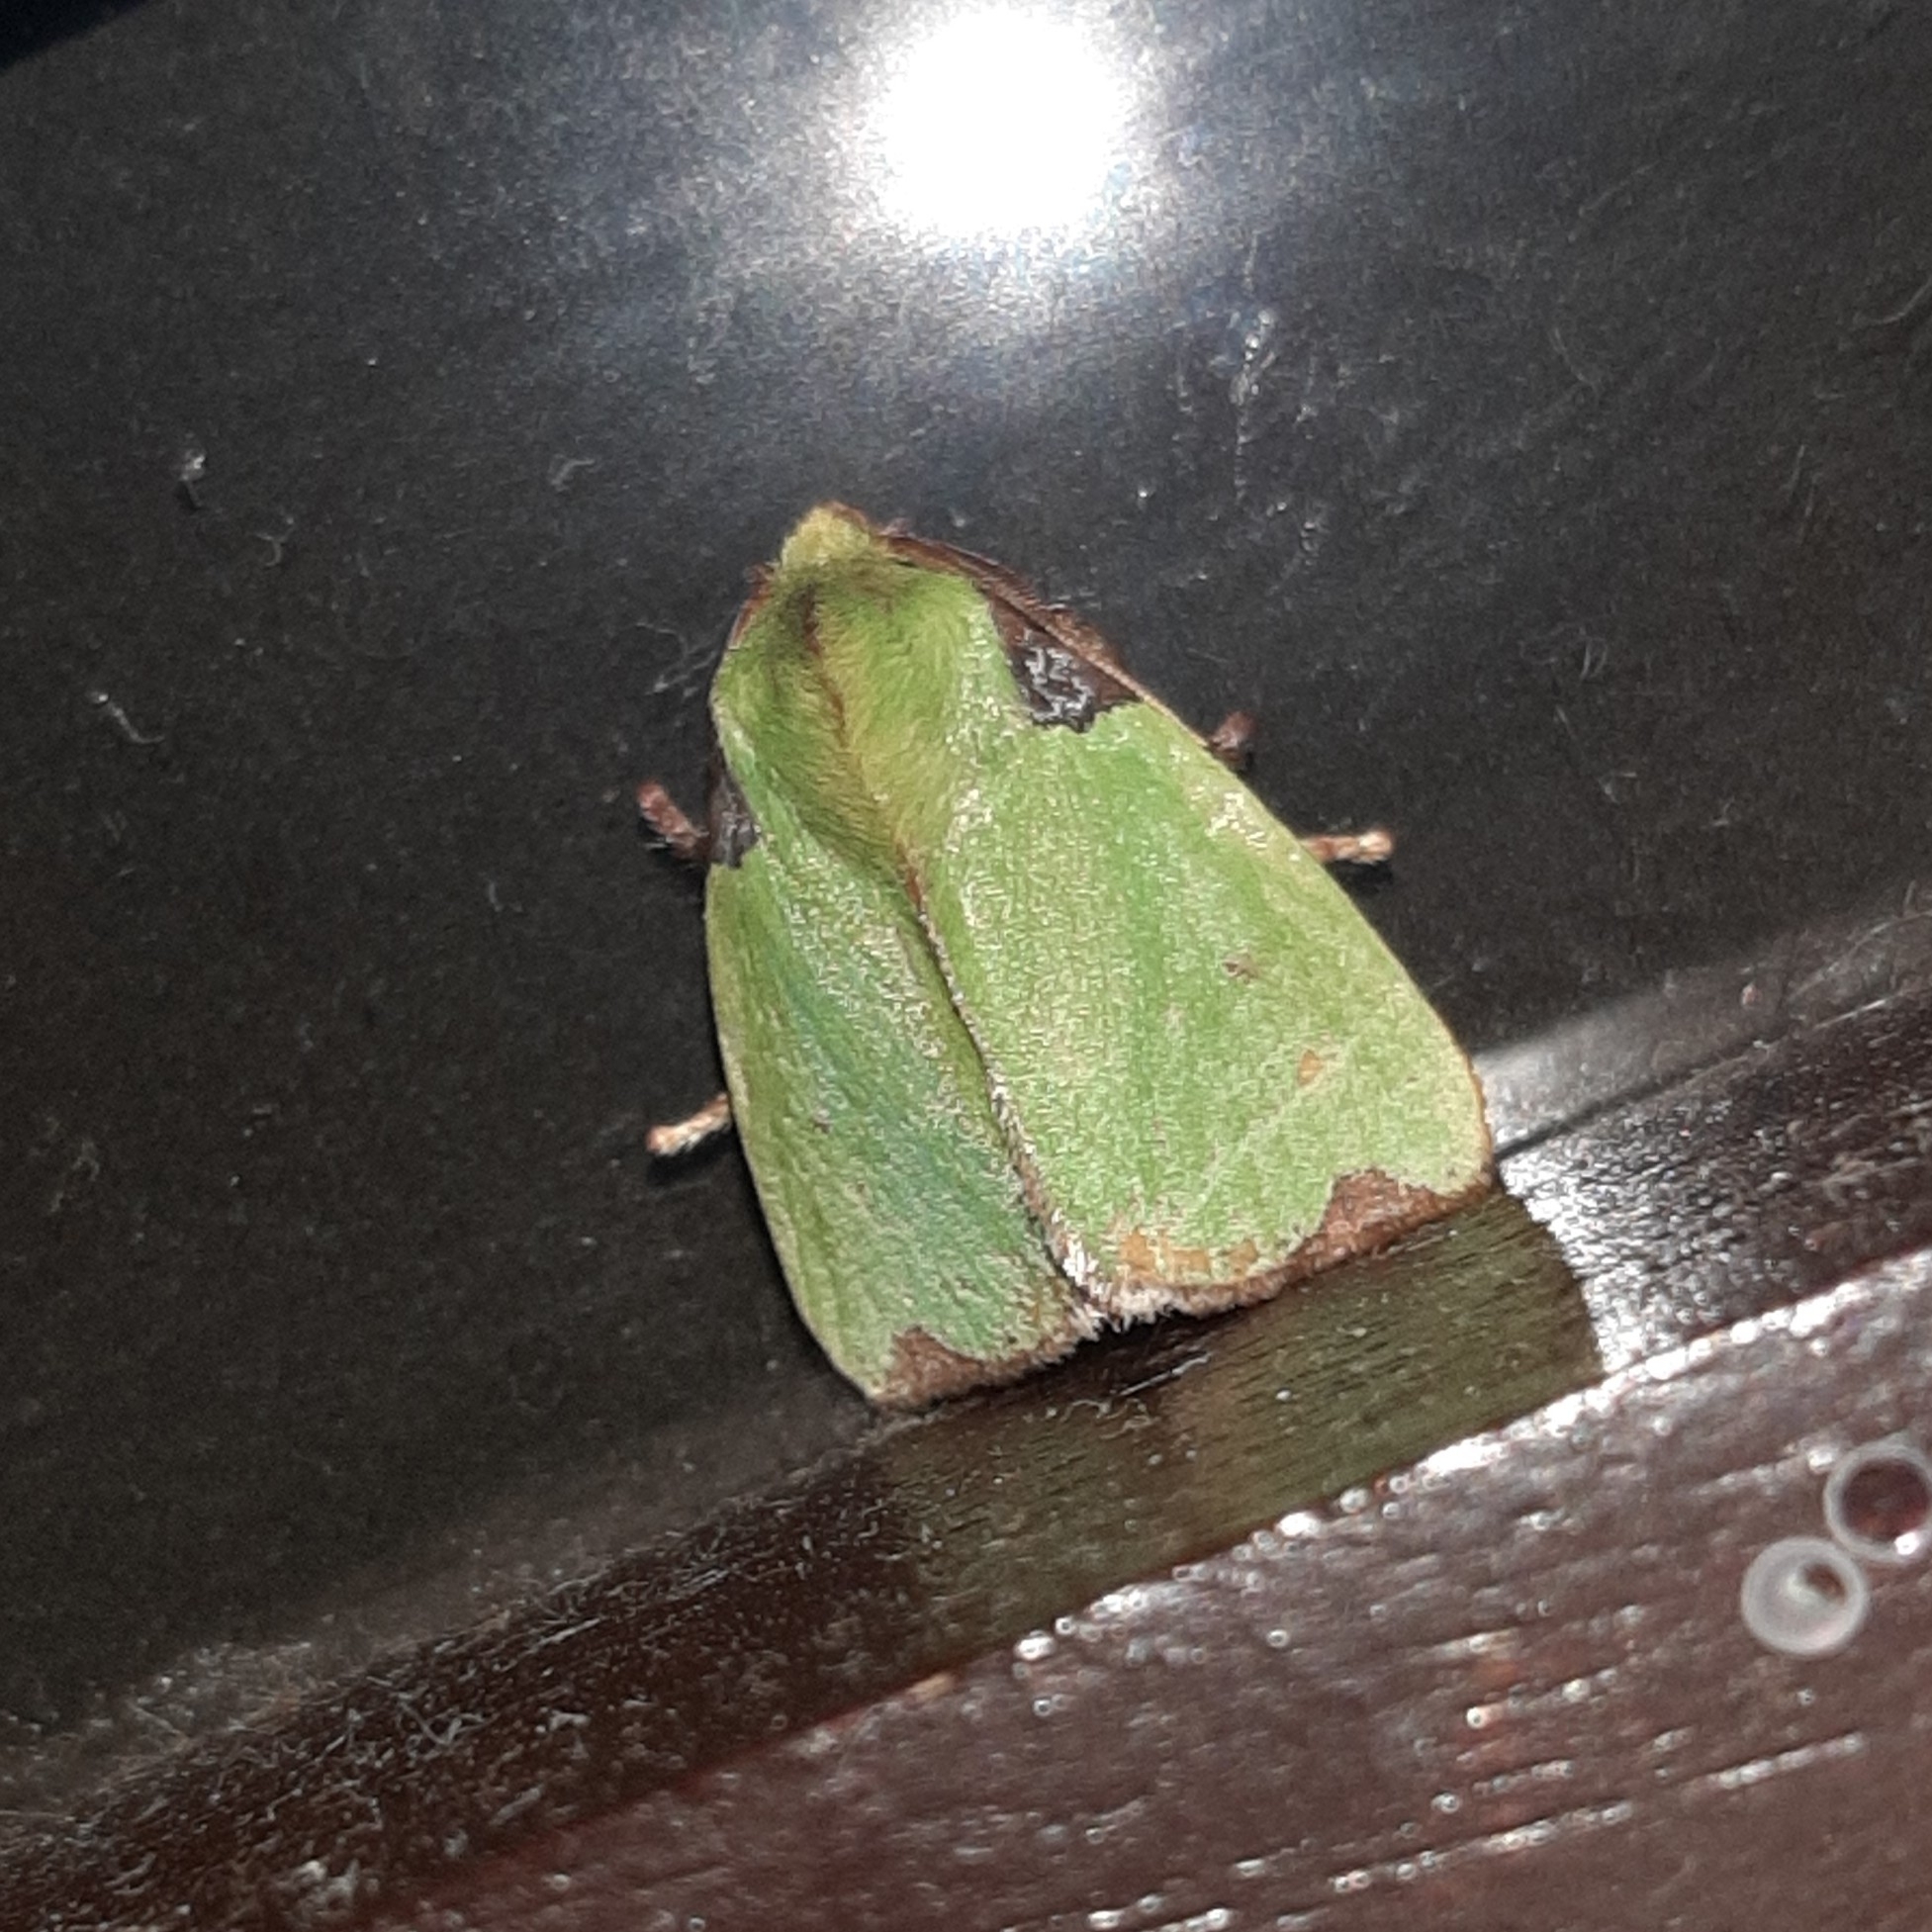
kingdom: Animalia
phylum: Arthropoda
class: Insecta
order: Lepidoptera
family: Limacodidae
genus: Parasa
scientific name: Parasa wellesca
